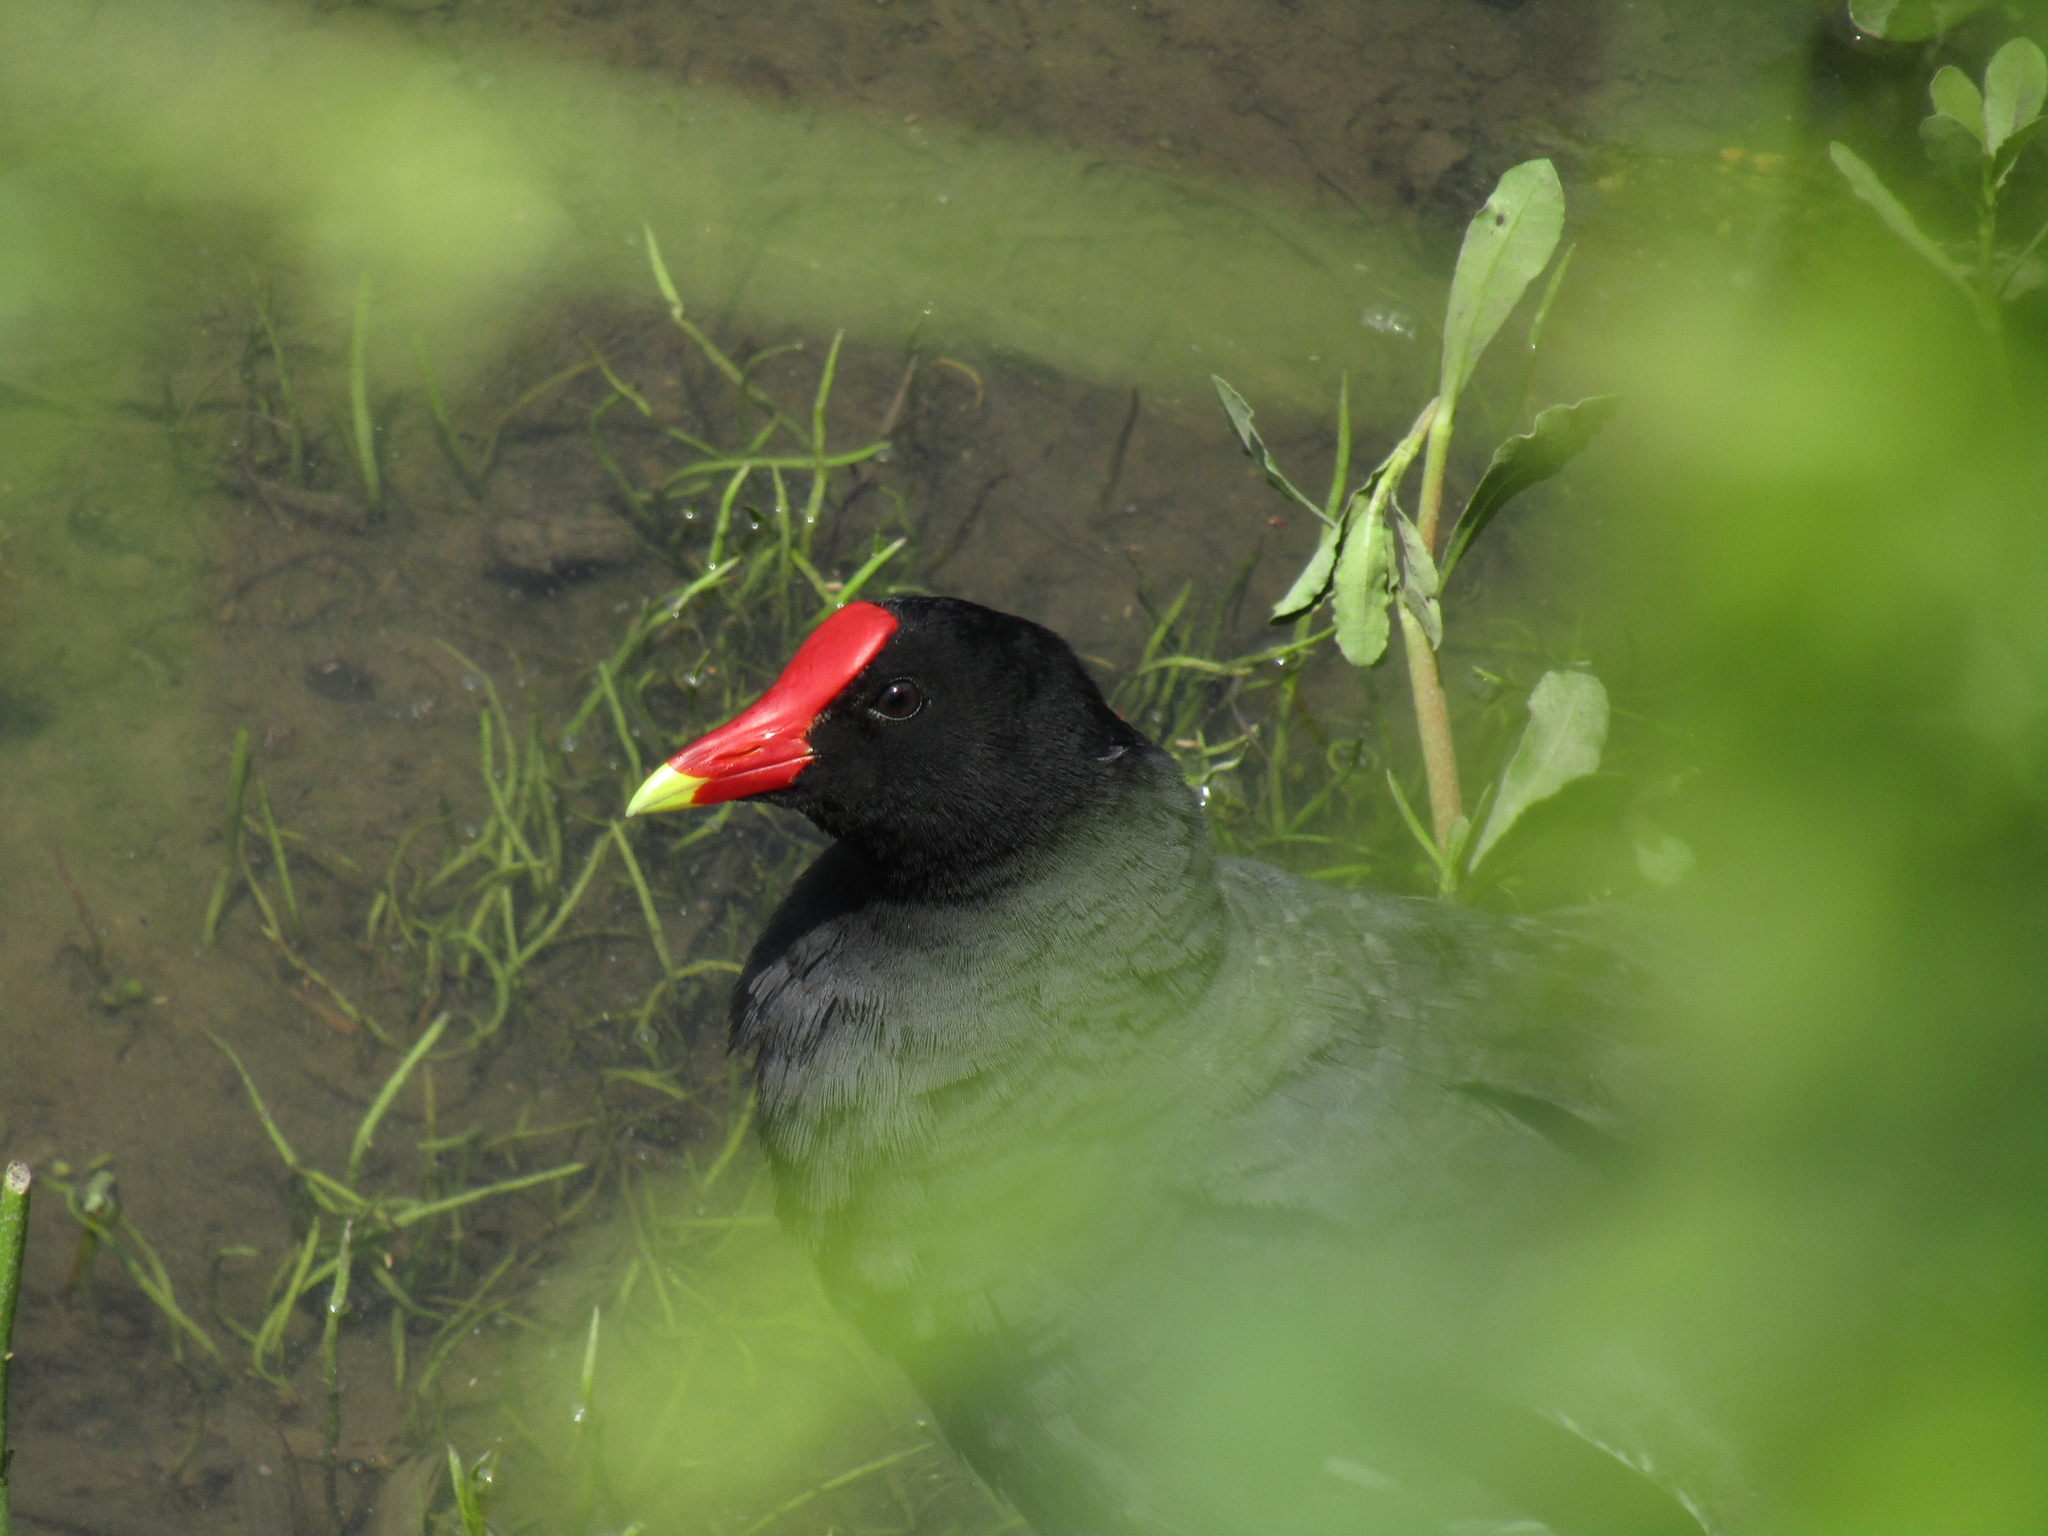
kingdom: Animalia
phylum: Chordata
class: Aves
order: Gruiformes
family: Rallidae
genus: Gallinula
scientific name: Gallinula chloropus
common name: Common moorhen
